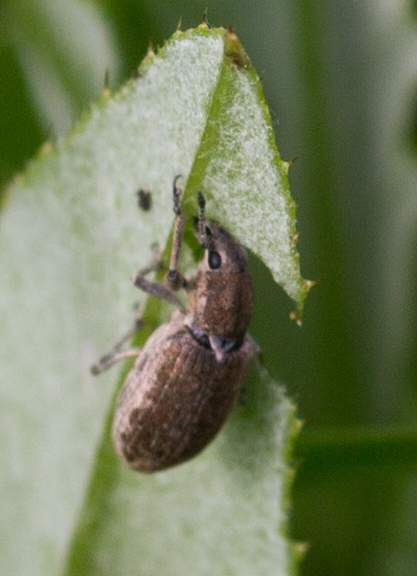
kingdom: Animalia
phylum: Arthropoda
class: Insecta
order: Coleoptera
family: Curculionidae
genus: Tanymecus
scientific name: Tanymecus palliatus
